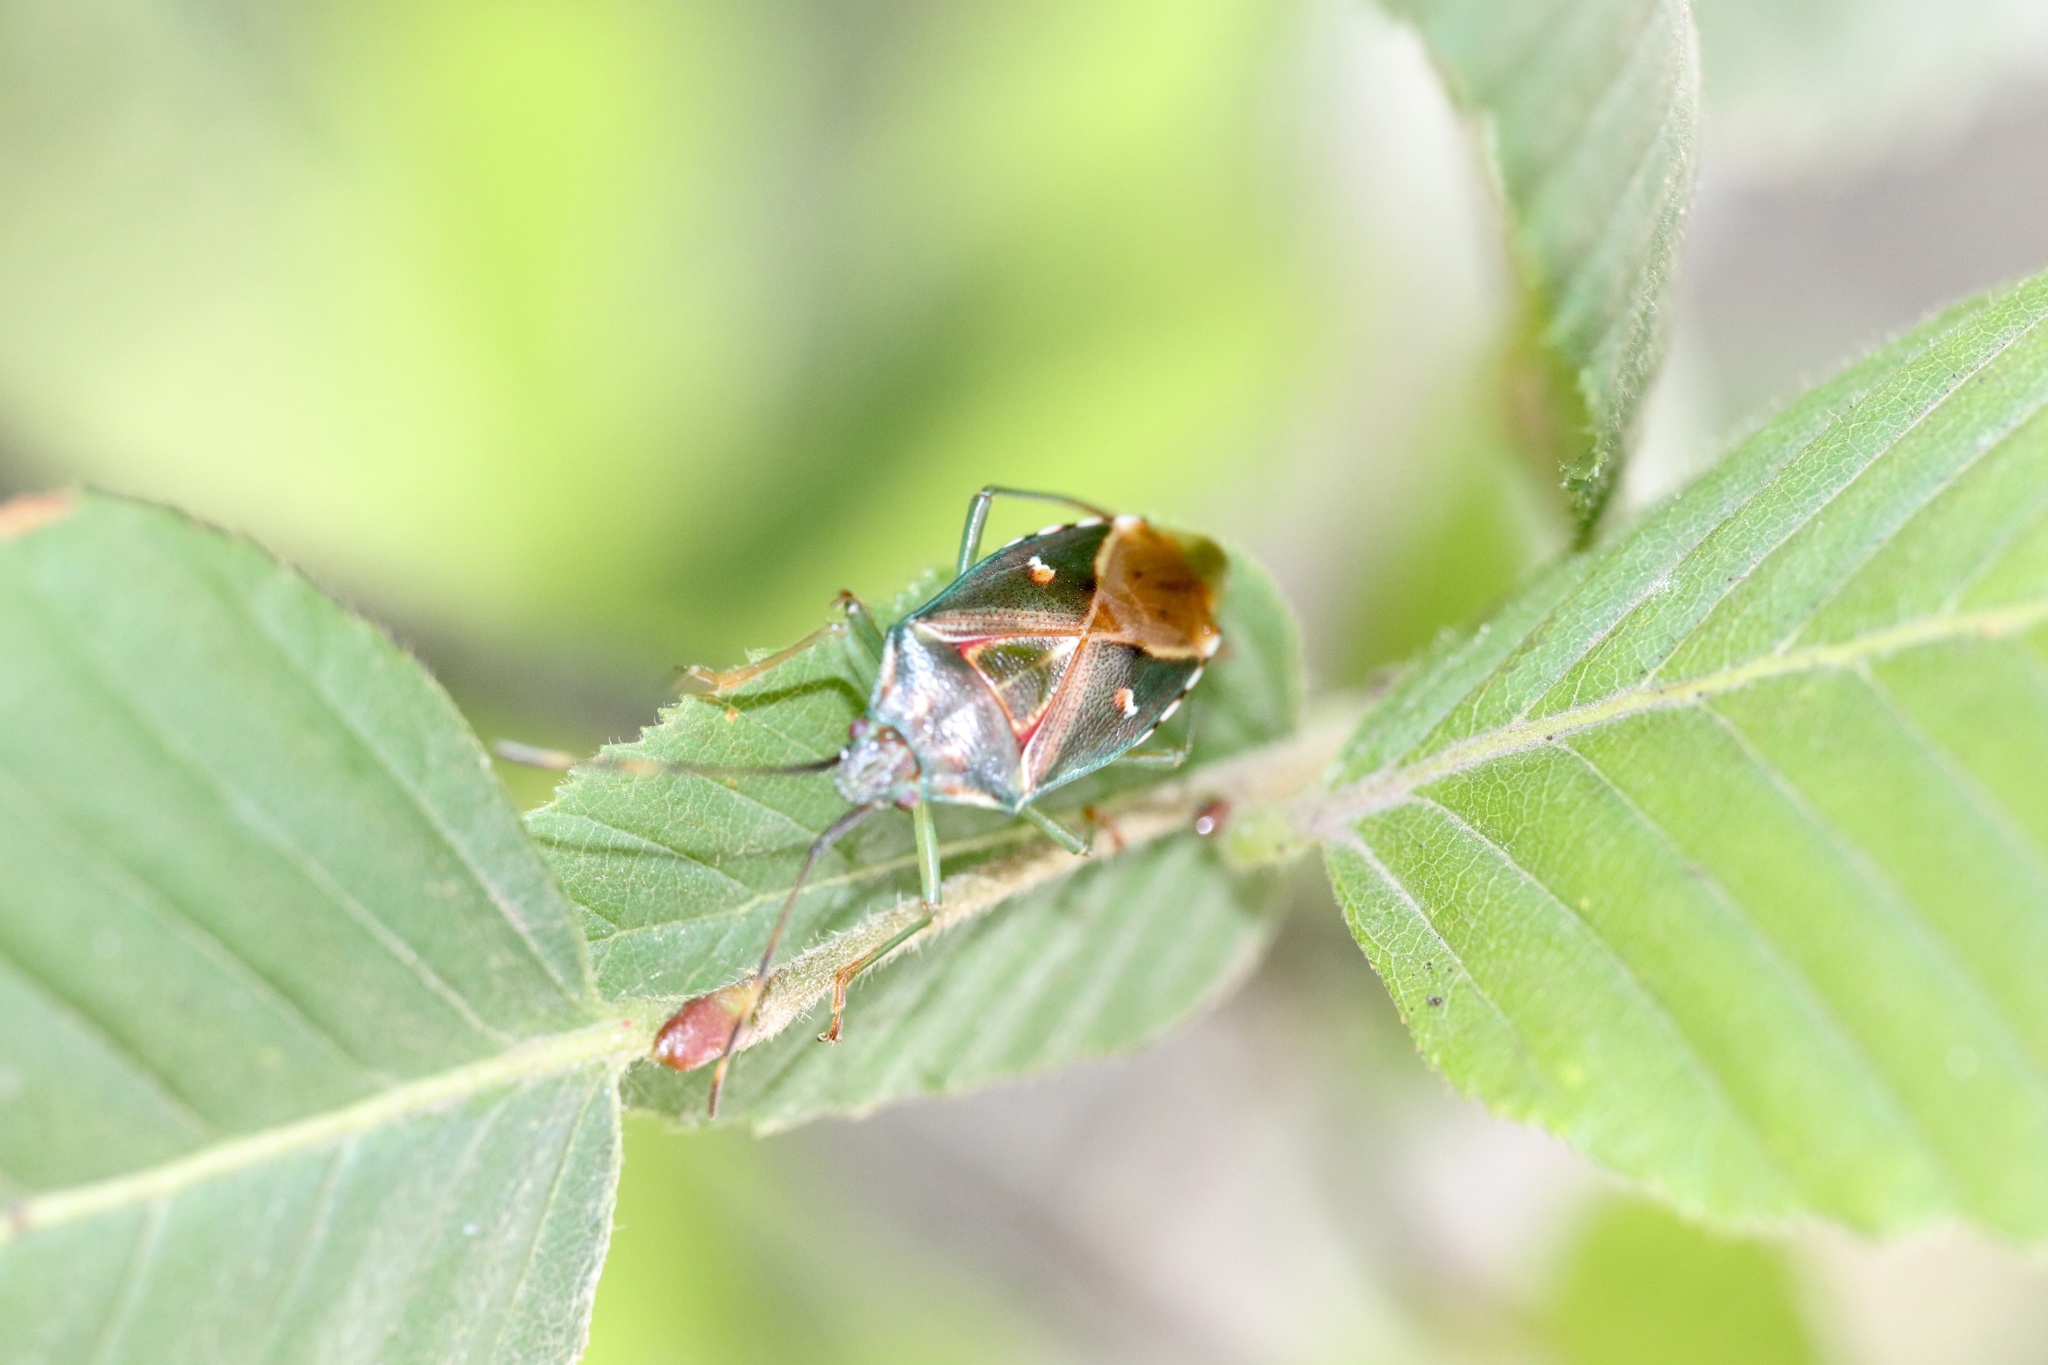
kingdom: Animalia
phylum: Arthropoda
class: Insecta
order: Hemiptera
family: Acanthosomatidae
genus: Planois
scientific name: Planois gayi
